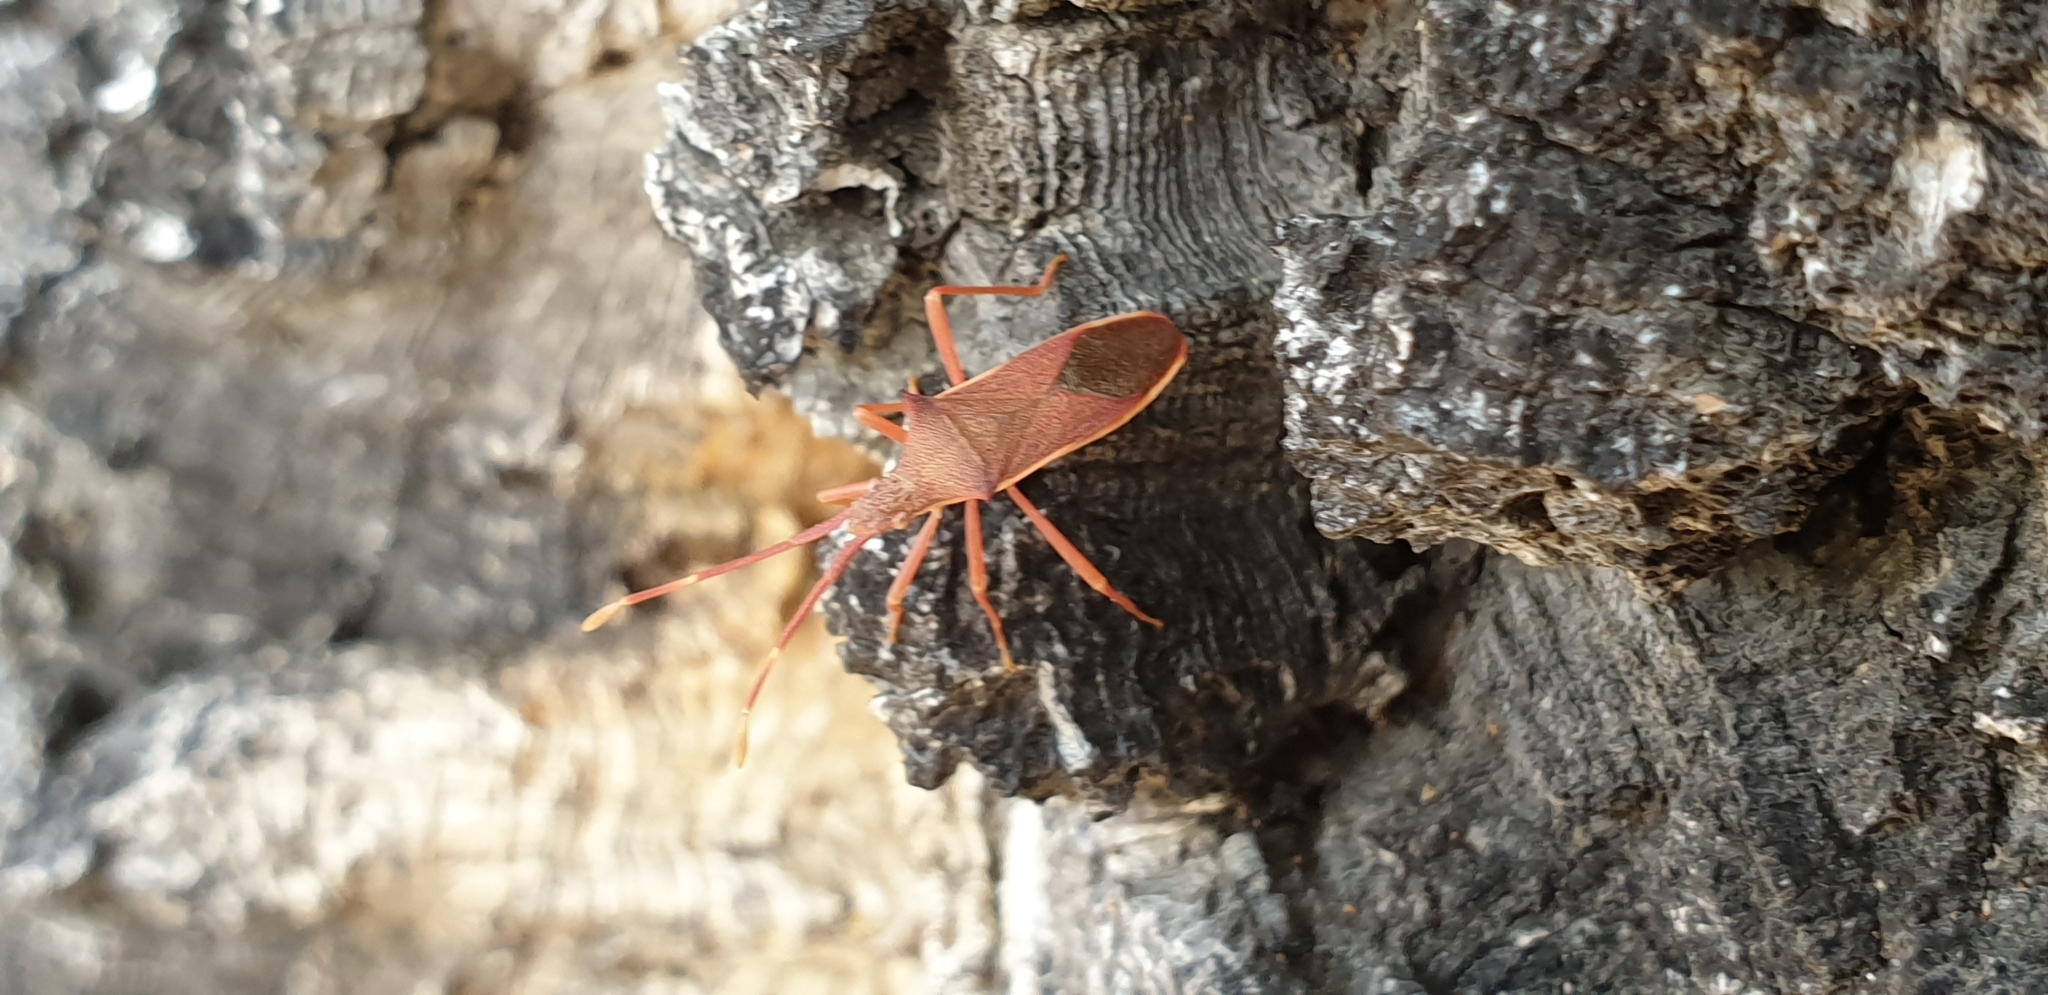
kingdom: Animalia
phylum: Arthropoda
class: Insecta
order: Hemiptera
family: Coreidae
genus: Gonocerus
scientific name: Gonocerus insidiator
